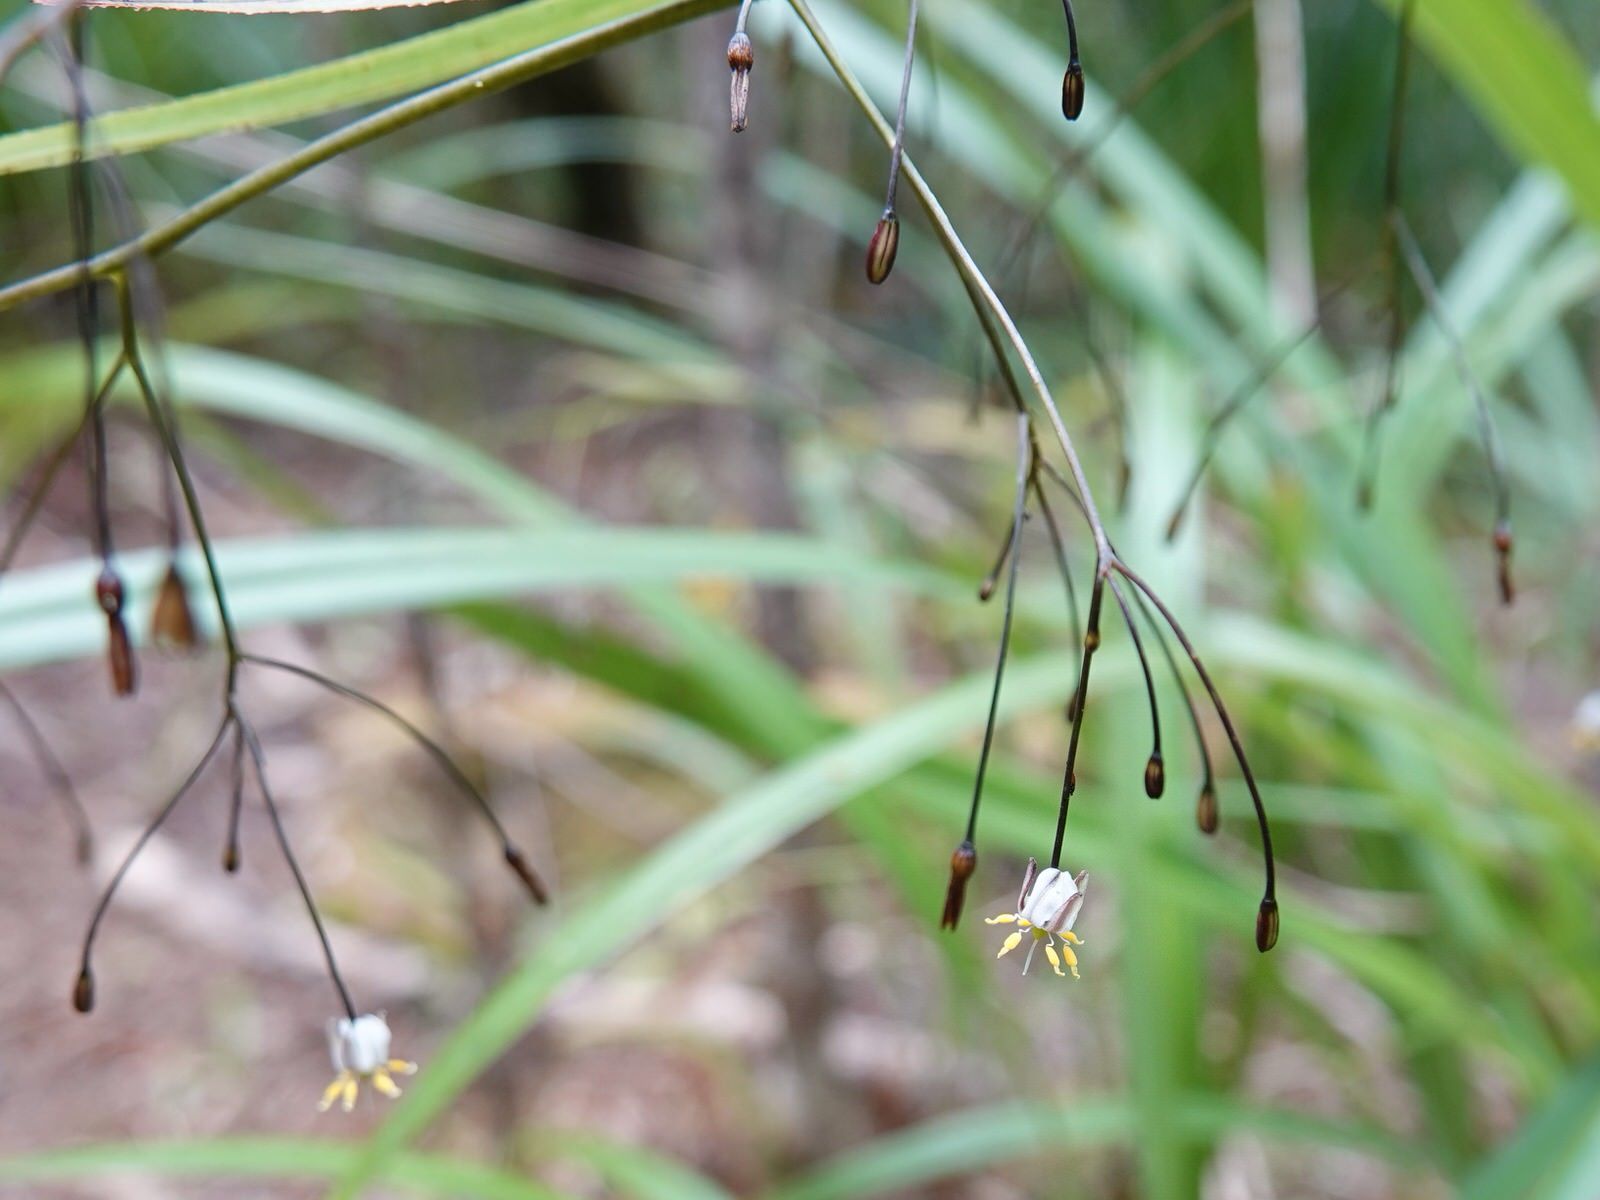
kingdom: Plantae
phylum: Tracheophyta
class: Liliopsida
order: Asparagales
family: Asphodelaceae
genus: Dianella
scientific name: Dianella nigra
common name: New zealand-blueberry
